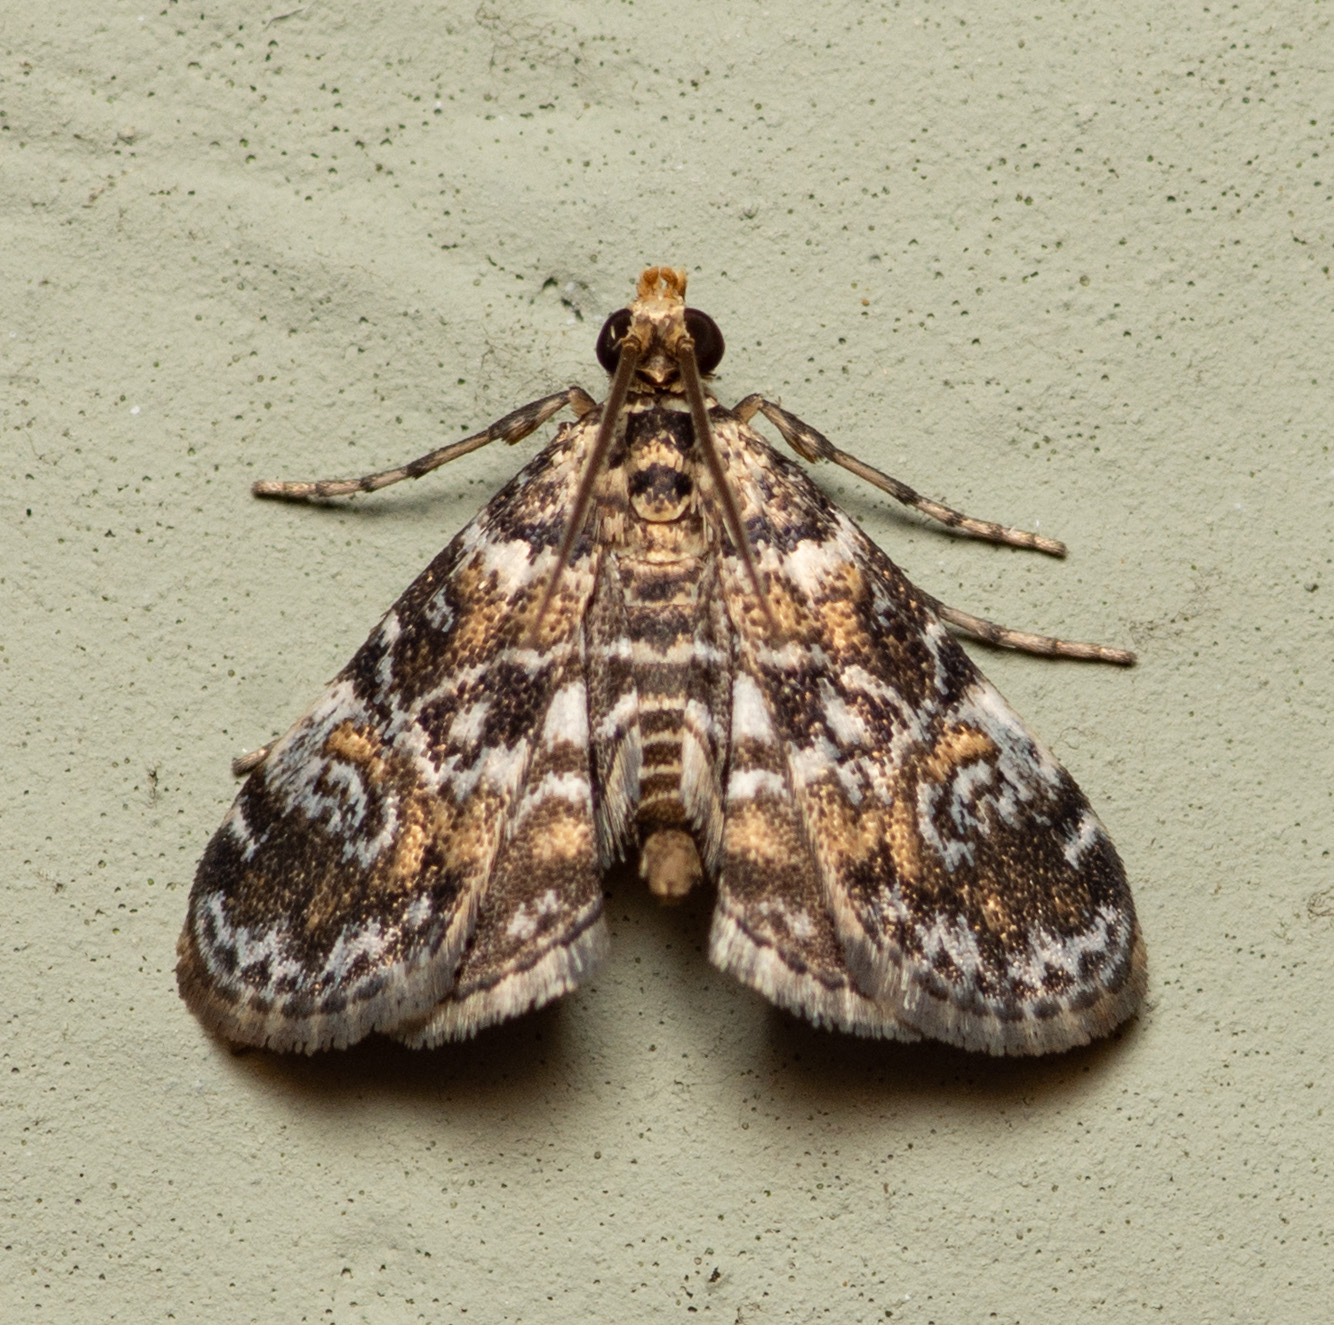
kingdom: Animalia
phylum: Arthropoda
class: Insecta
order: Lepidoptera
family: Crambidae
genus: Elophila
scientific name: Elophila obliteralis
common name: Waterlily leafcutter moth
